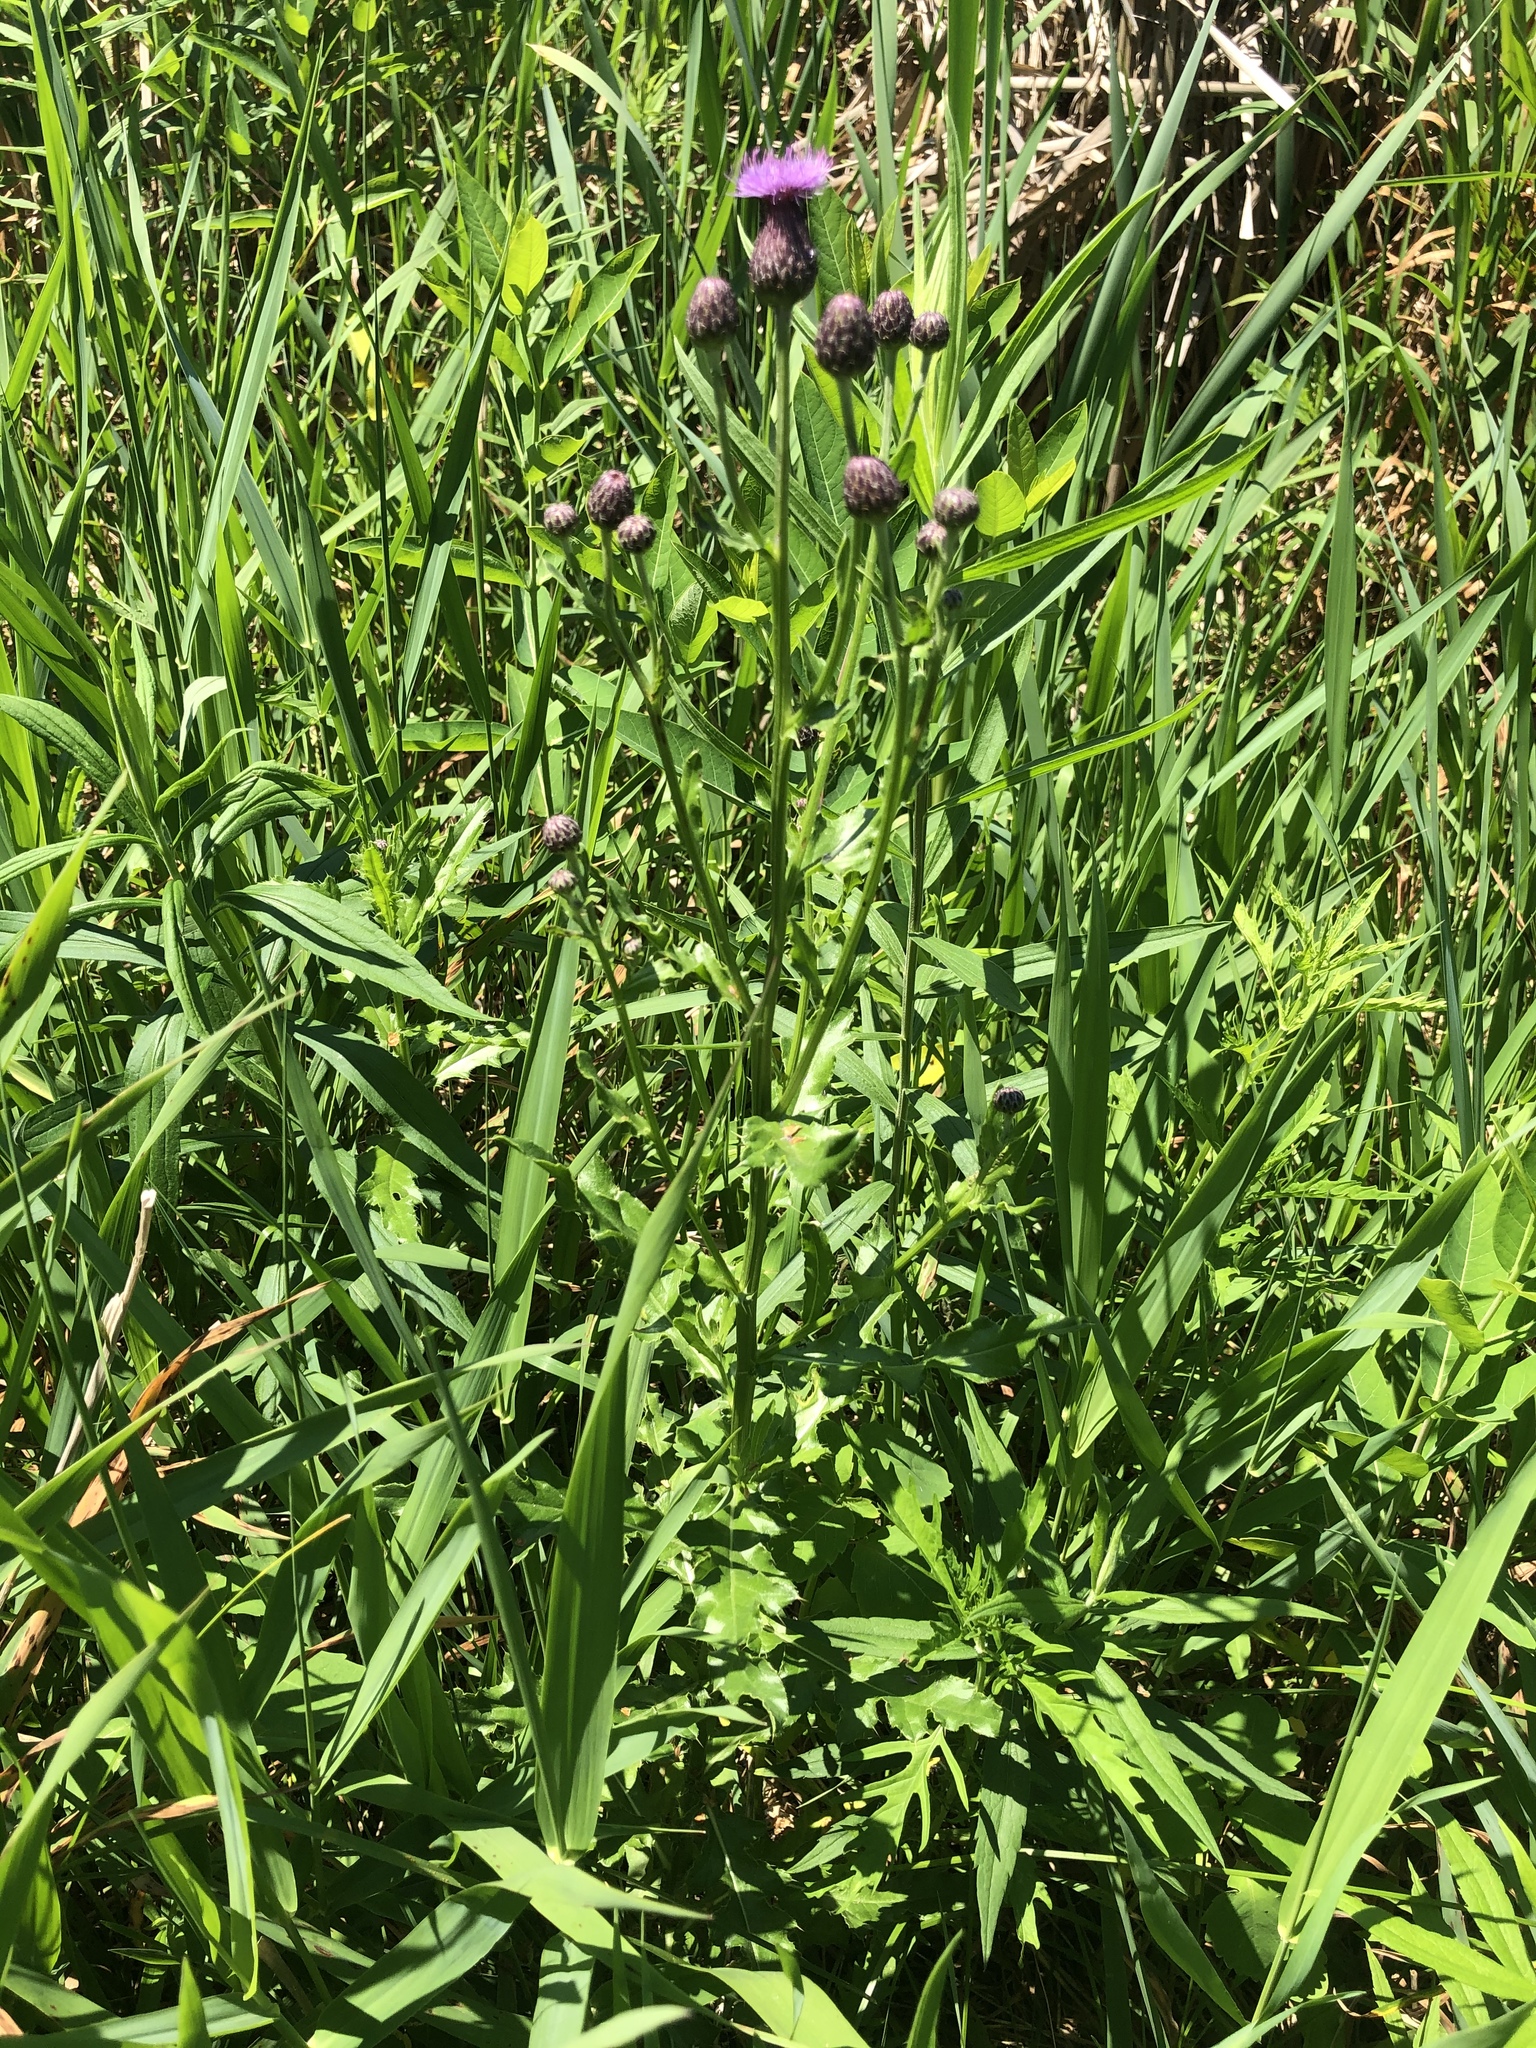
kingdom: Plantae
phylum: Tracheophyta
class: Magnoliopsida
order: Asterales
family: Asteraceae
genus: Cirsium
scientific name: Cirsium arvense
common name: Creeping thistle
